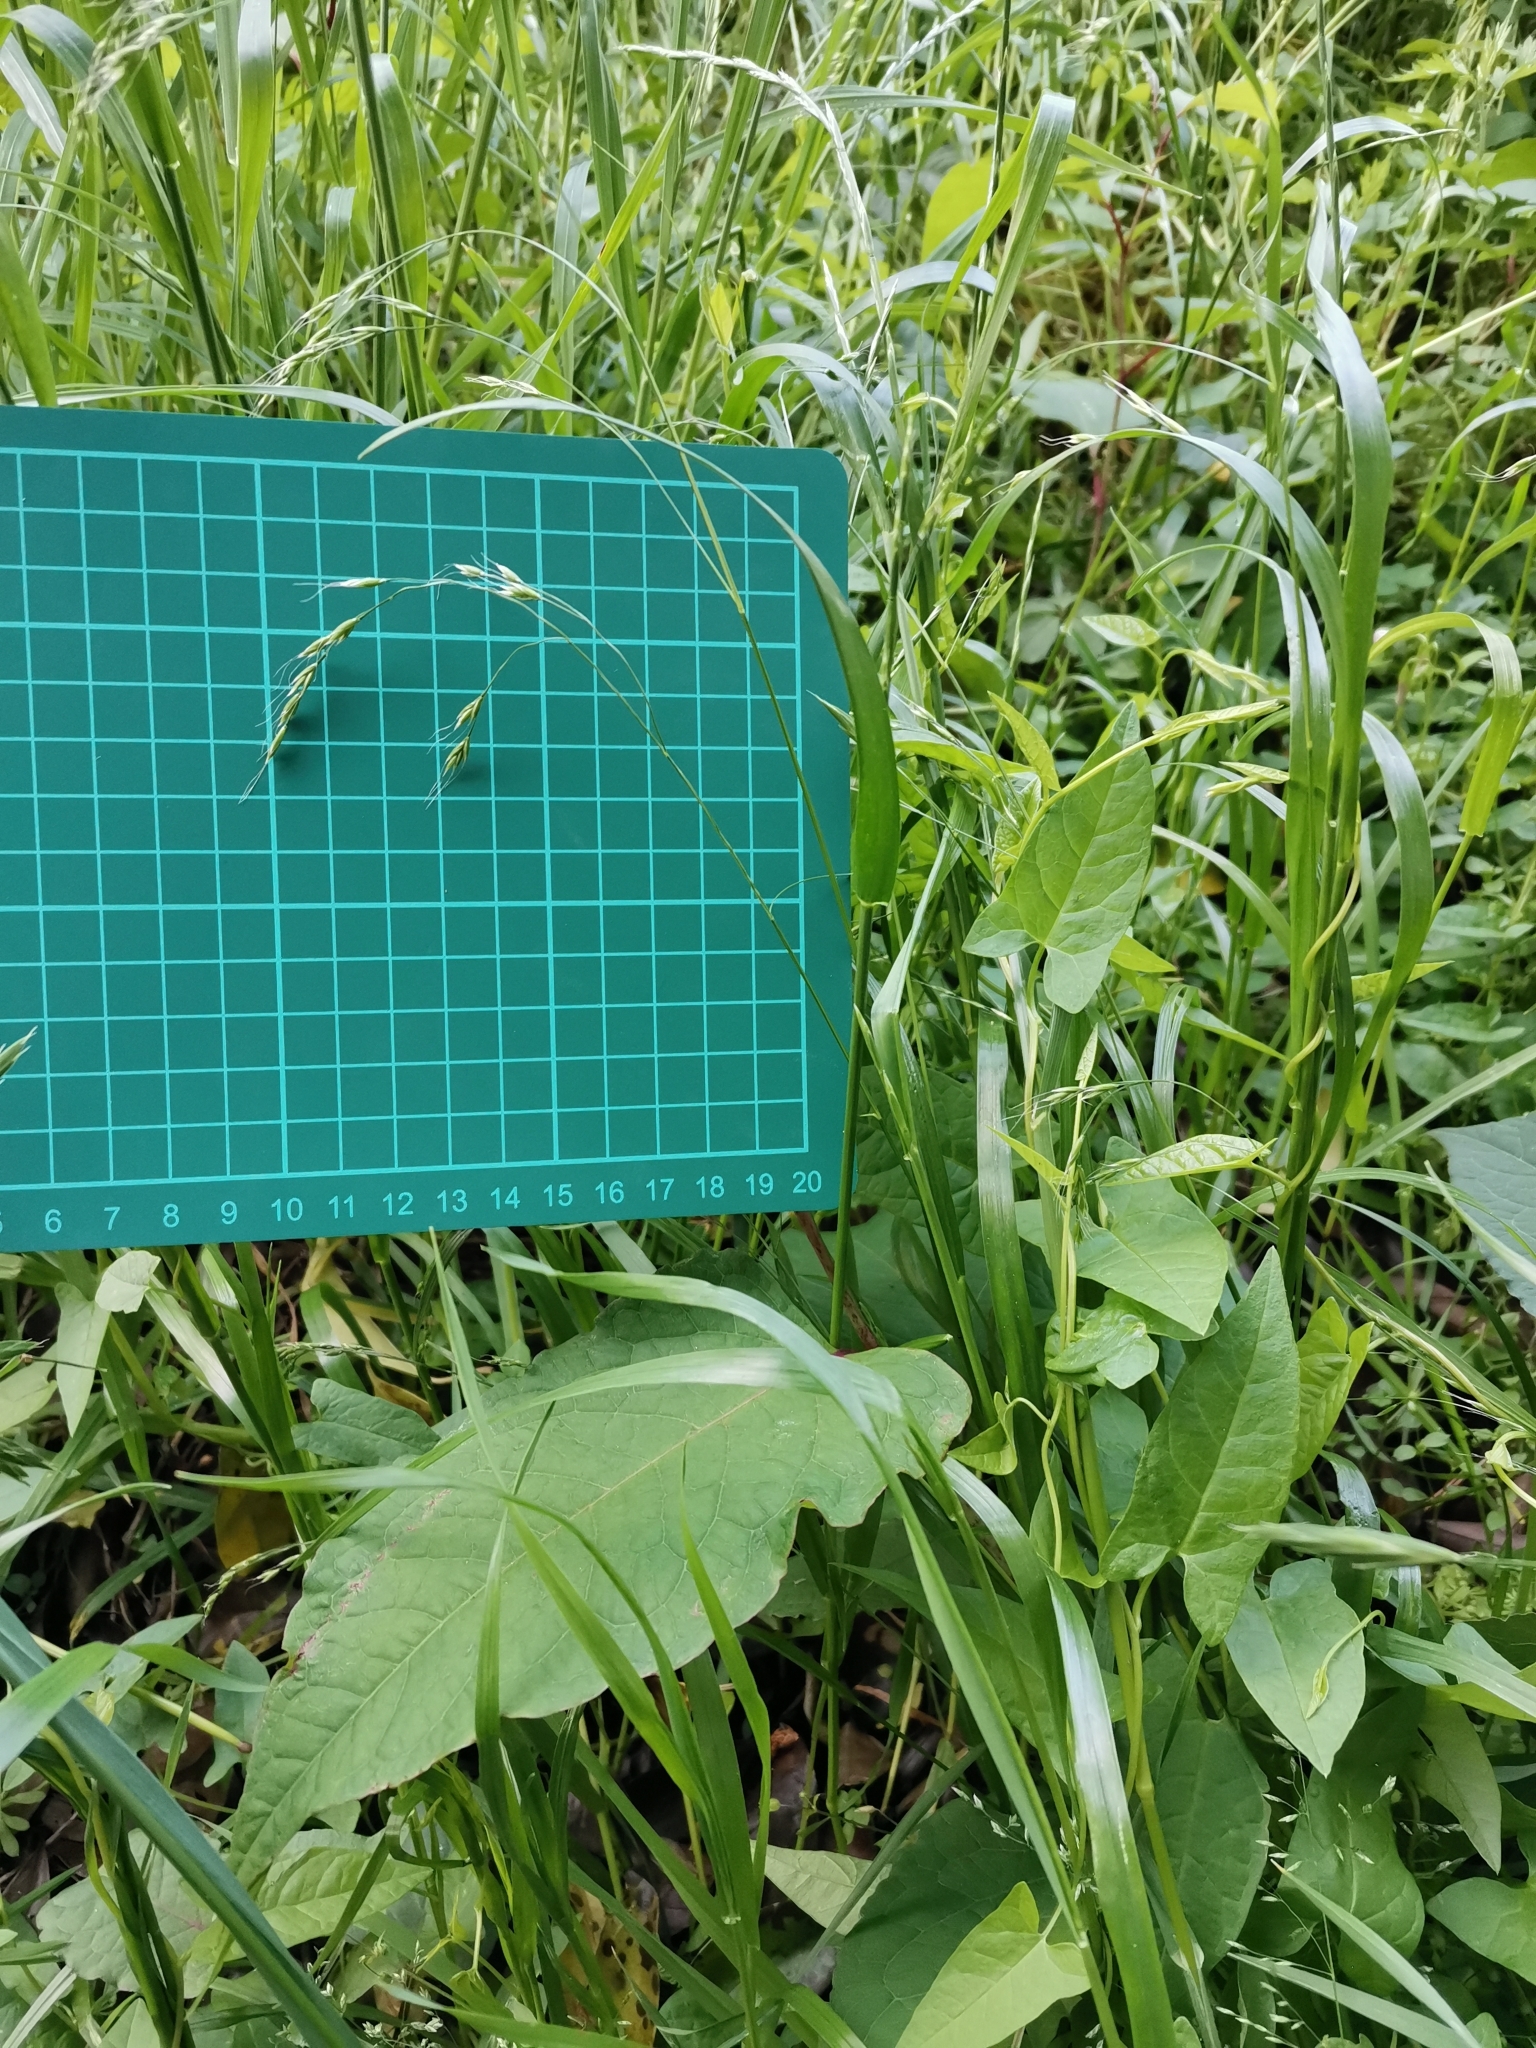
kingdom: Plantae
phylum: Tracheophyta
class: Liliopsida
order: Poales
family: Poaceae
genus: Festuca
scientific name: Festuca parvigluma
